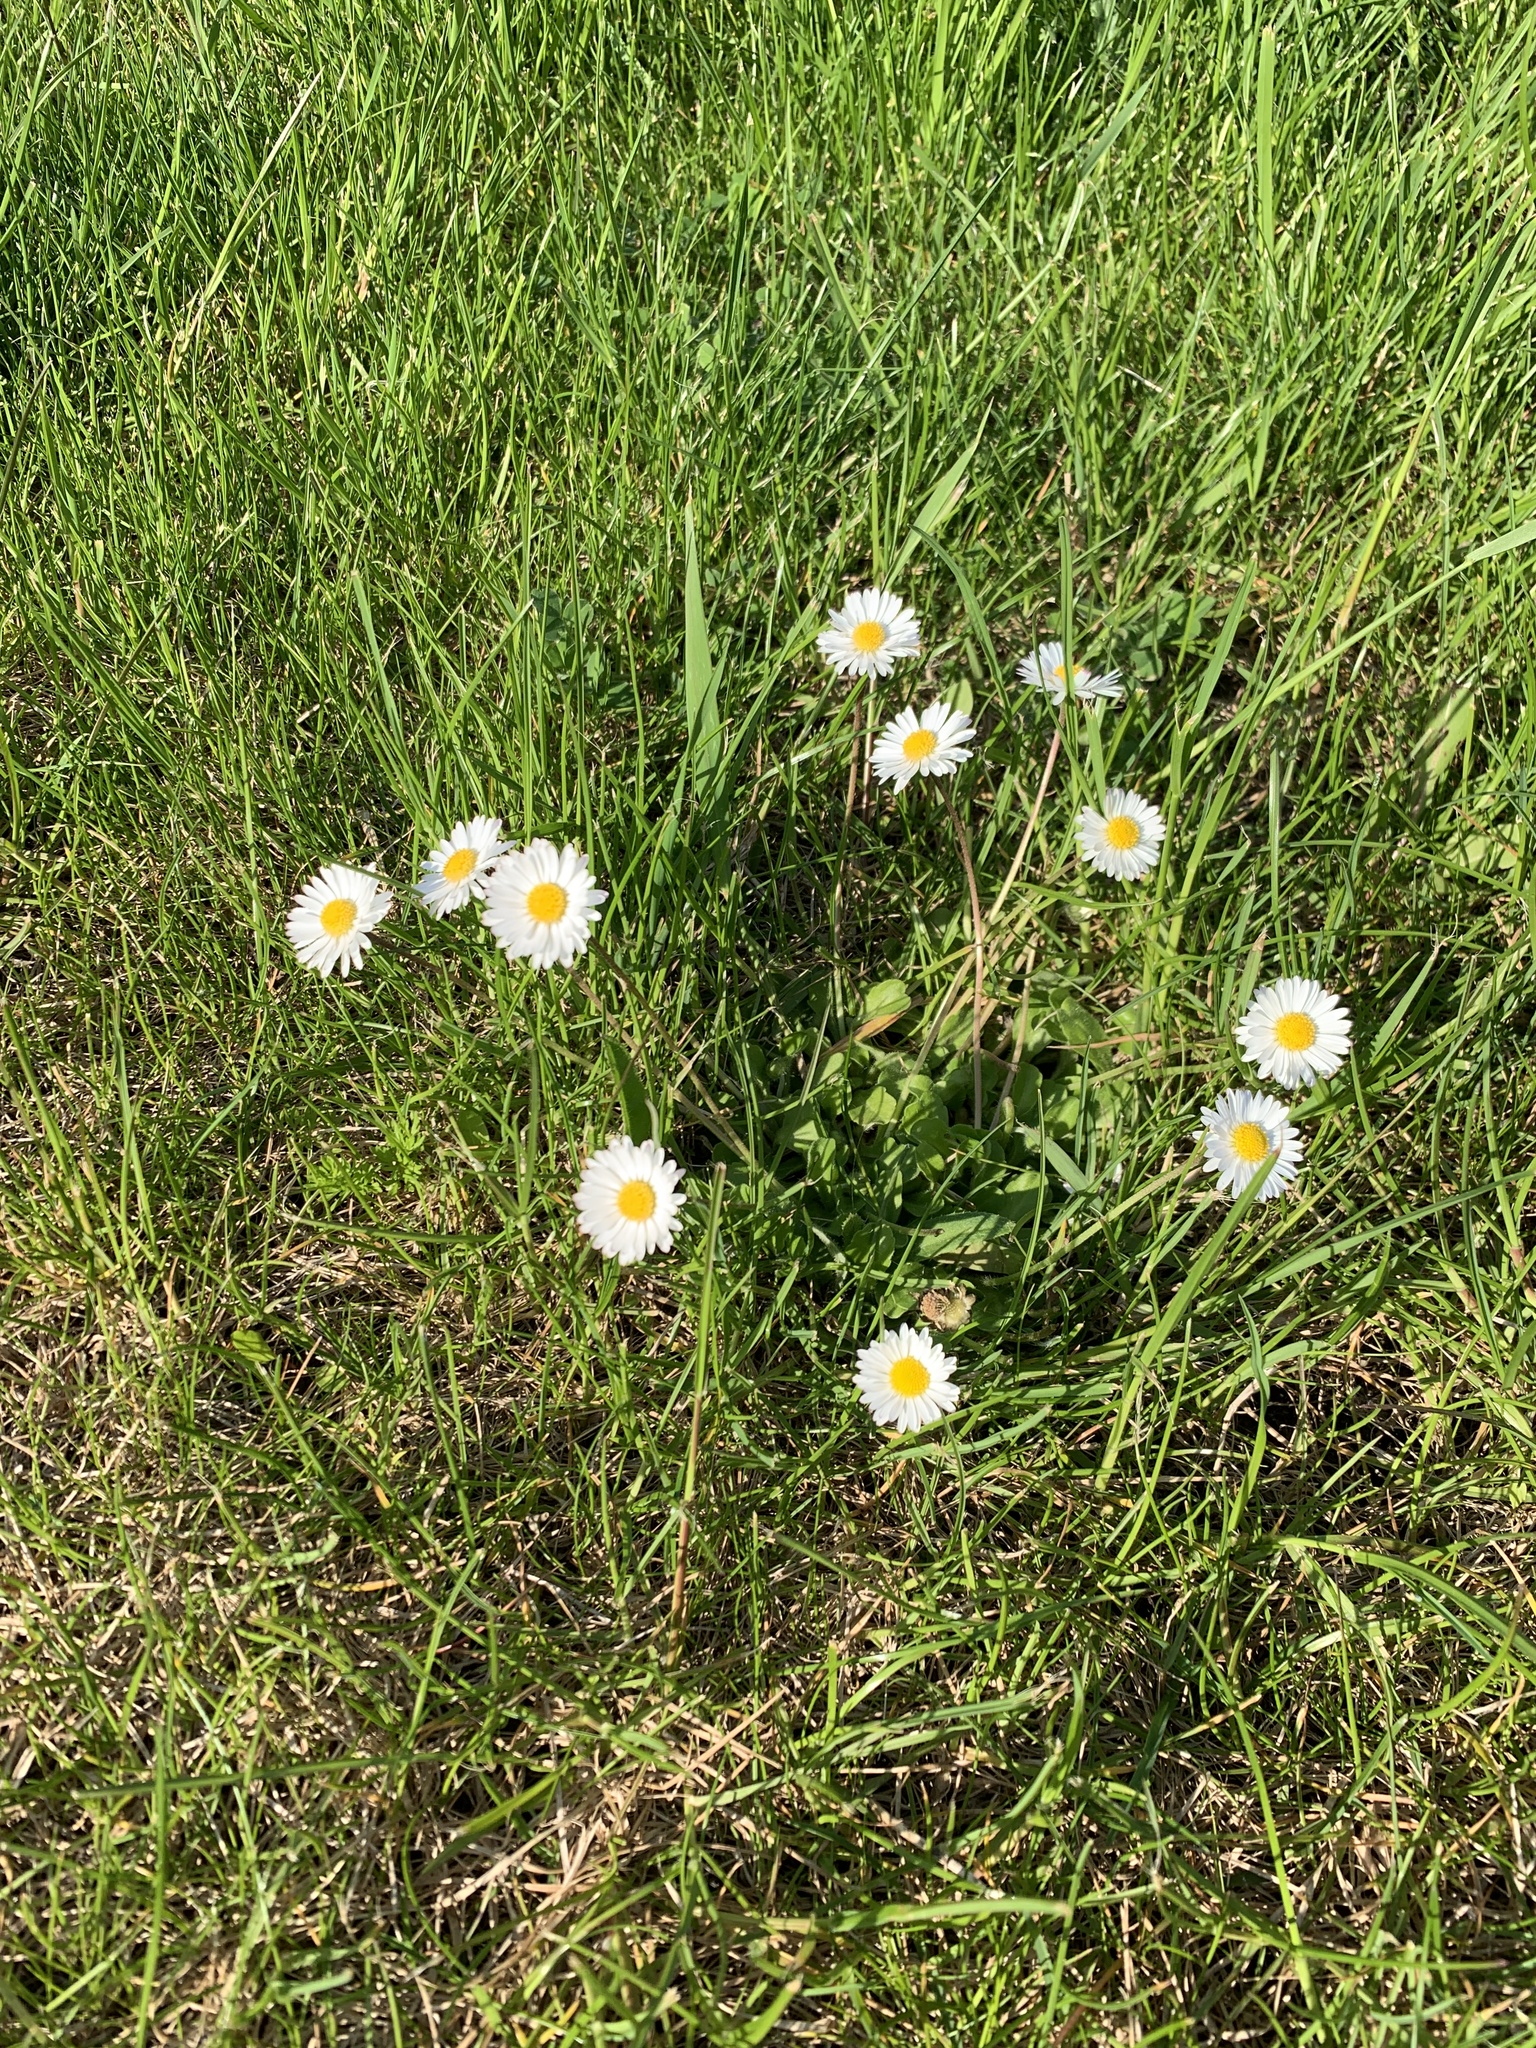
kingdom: Plantae
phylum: Tracheophyta
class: Magnoliopsida
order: Asterales
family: Asteraceae
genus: Bellis
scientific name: Bellis perennis
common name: Lawndaisy
